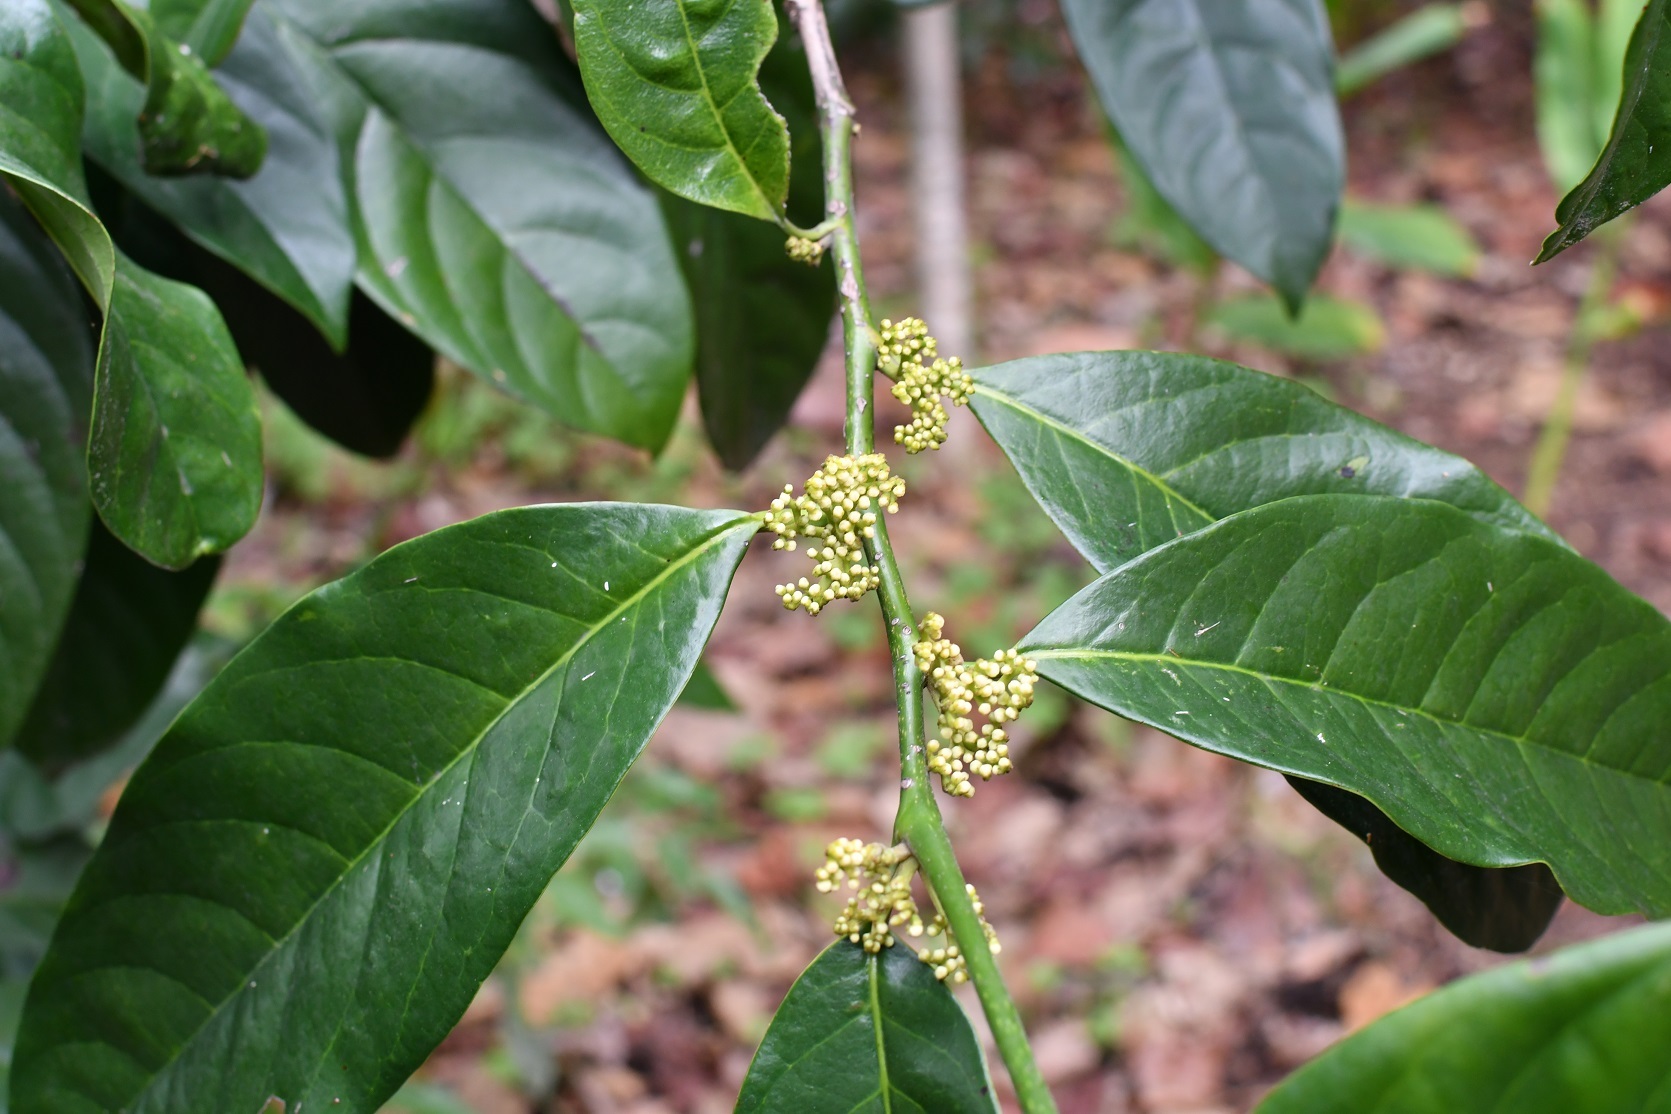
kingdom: Plantae
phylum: Tracheophyta
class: Magnoliopsida
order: Metteniusales
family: Metteniusaceae
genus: Oecopetalum
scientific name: Oecopetalum mexicanum
